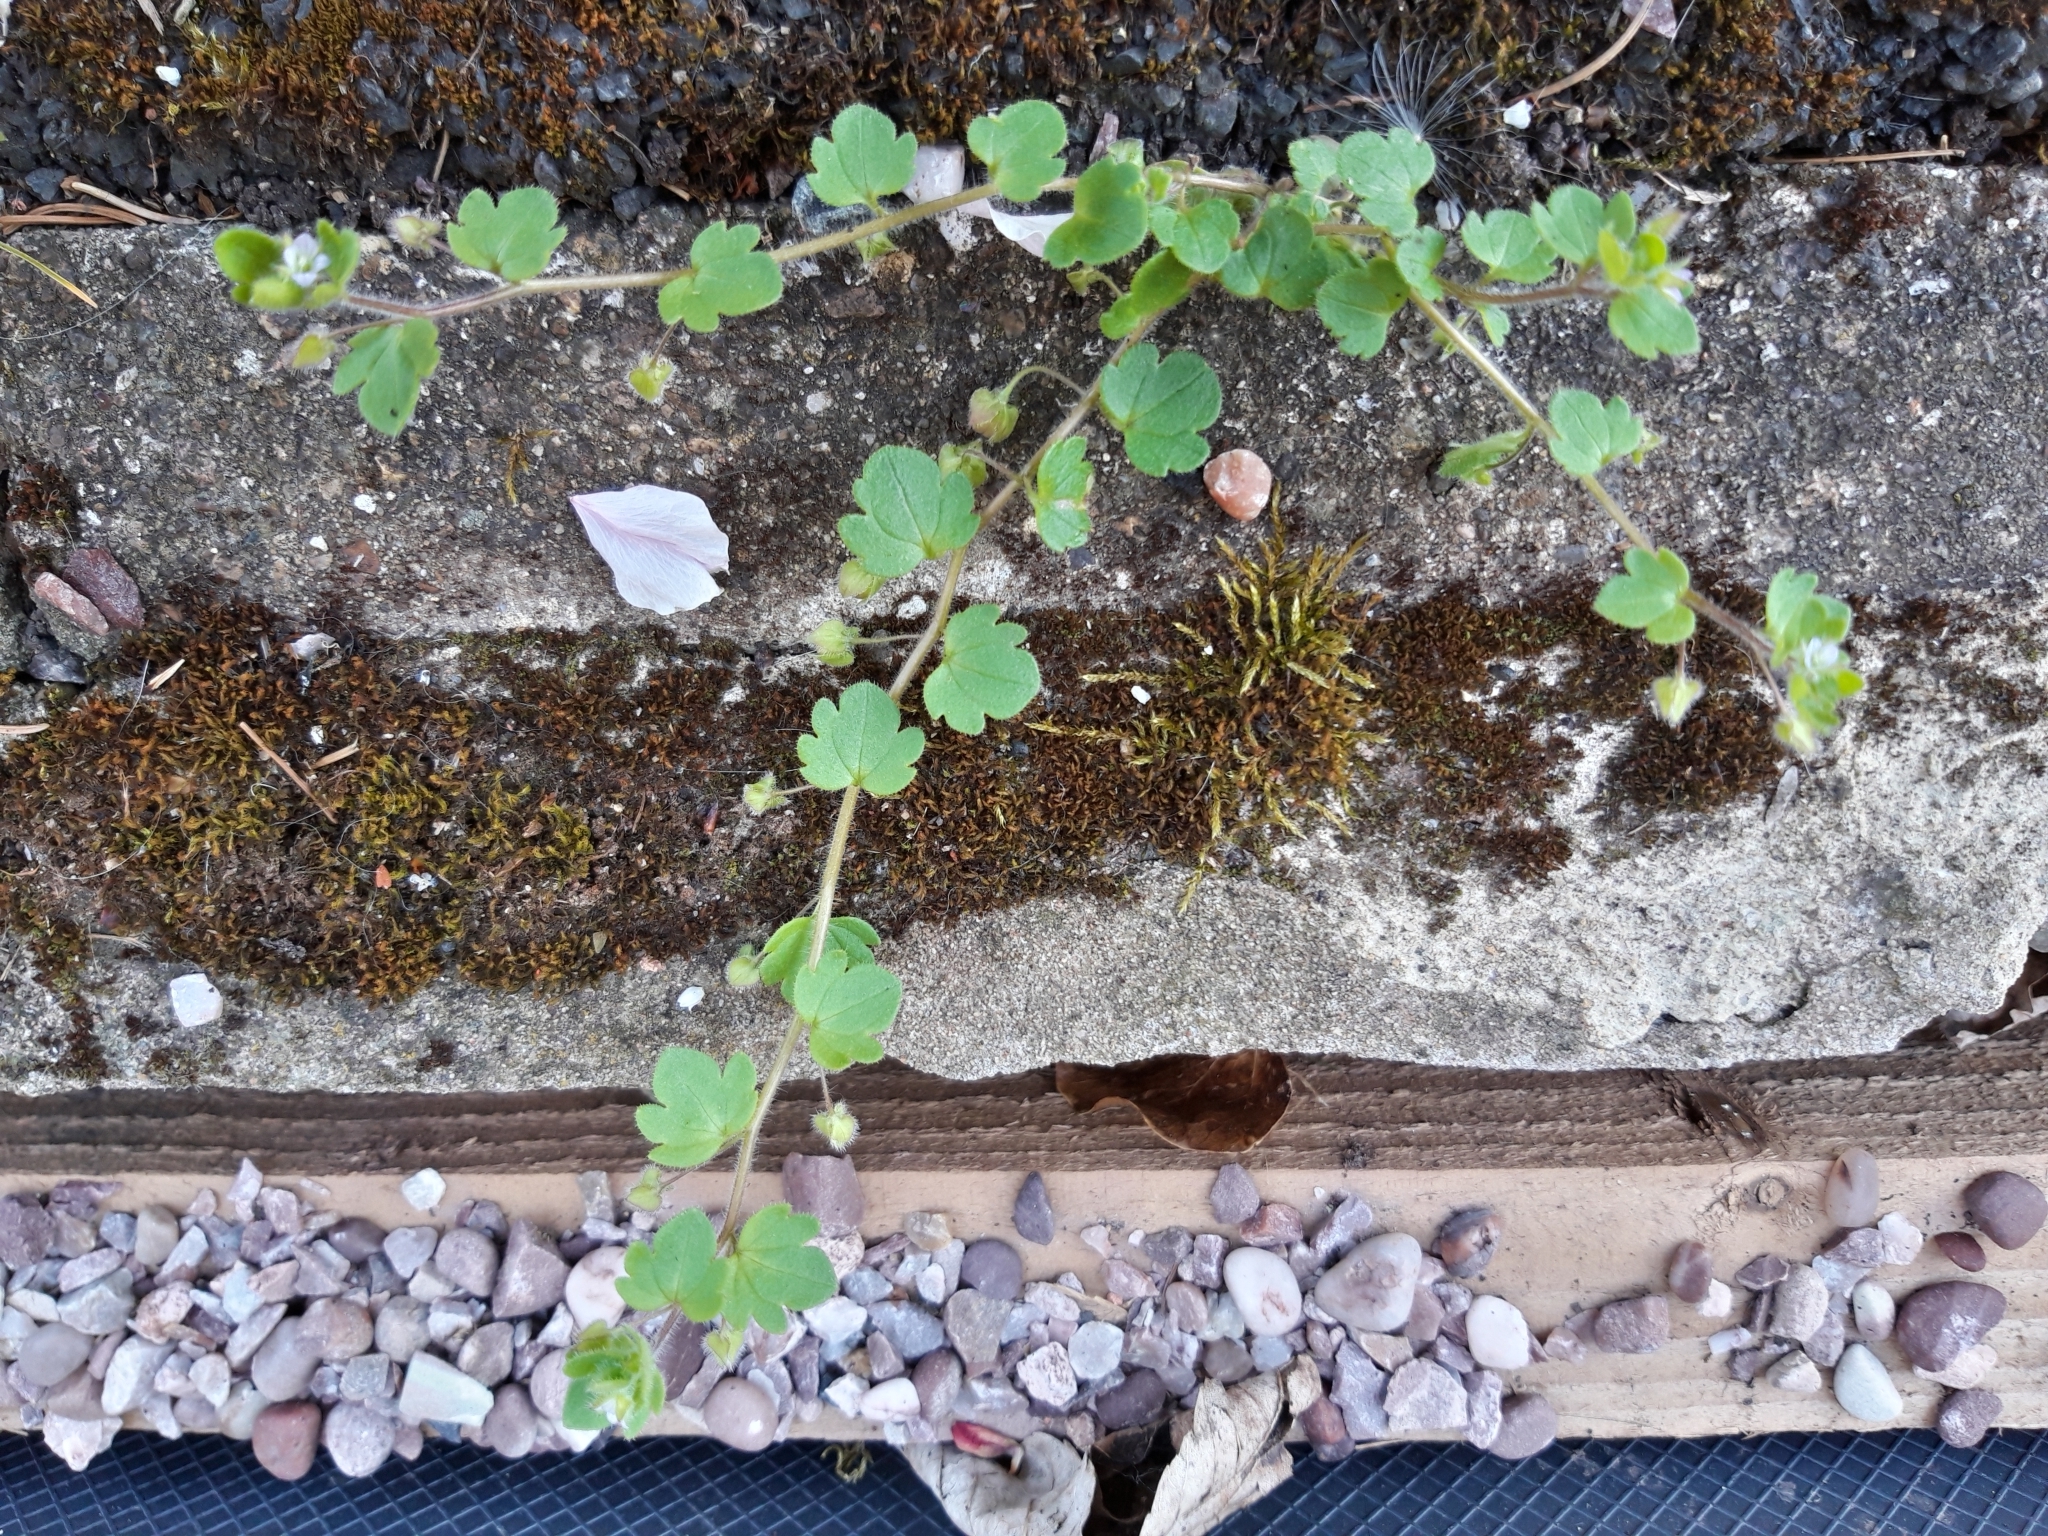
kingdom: Plantae
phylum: Tracheophyta
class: Magnoliopsida
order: Lamiales
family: Plantaginaceae
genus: Veronica
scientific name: Veronica sublobata
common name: False ivy-leaved speedwell
